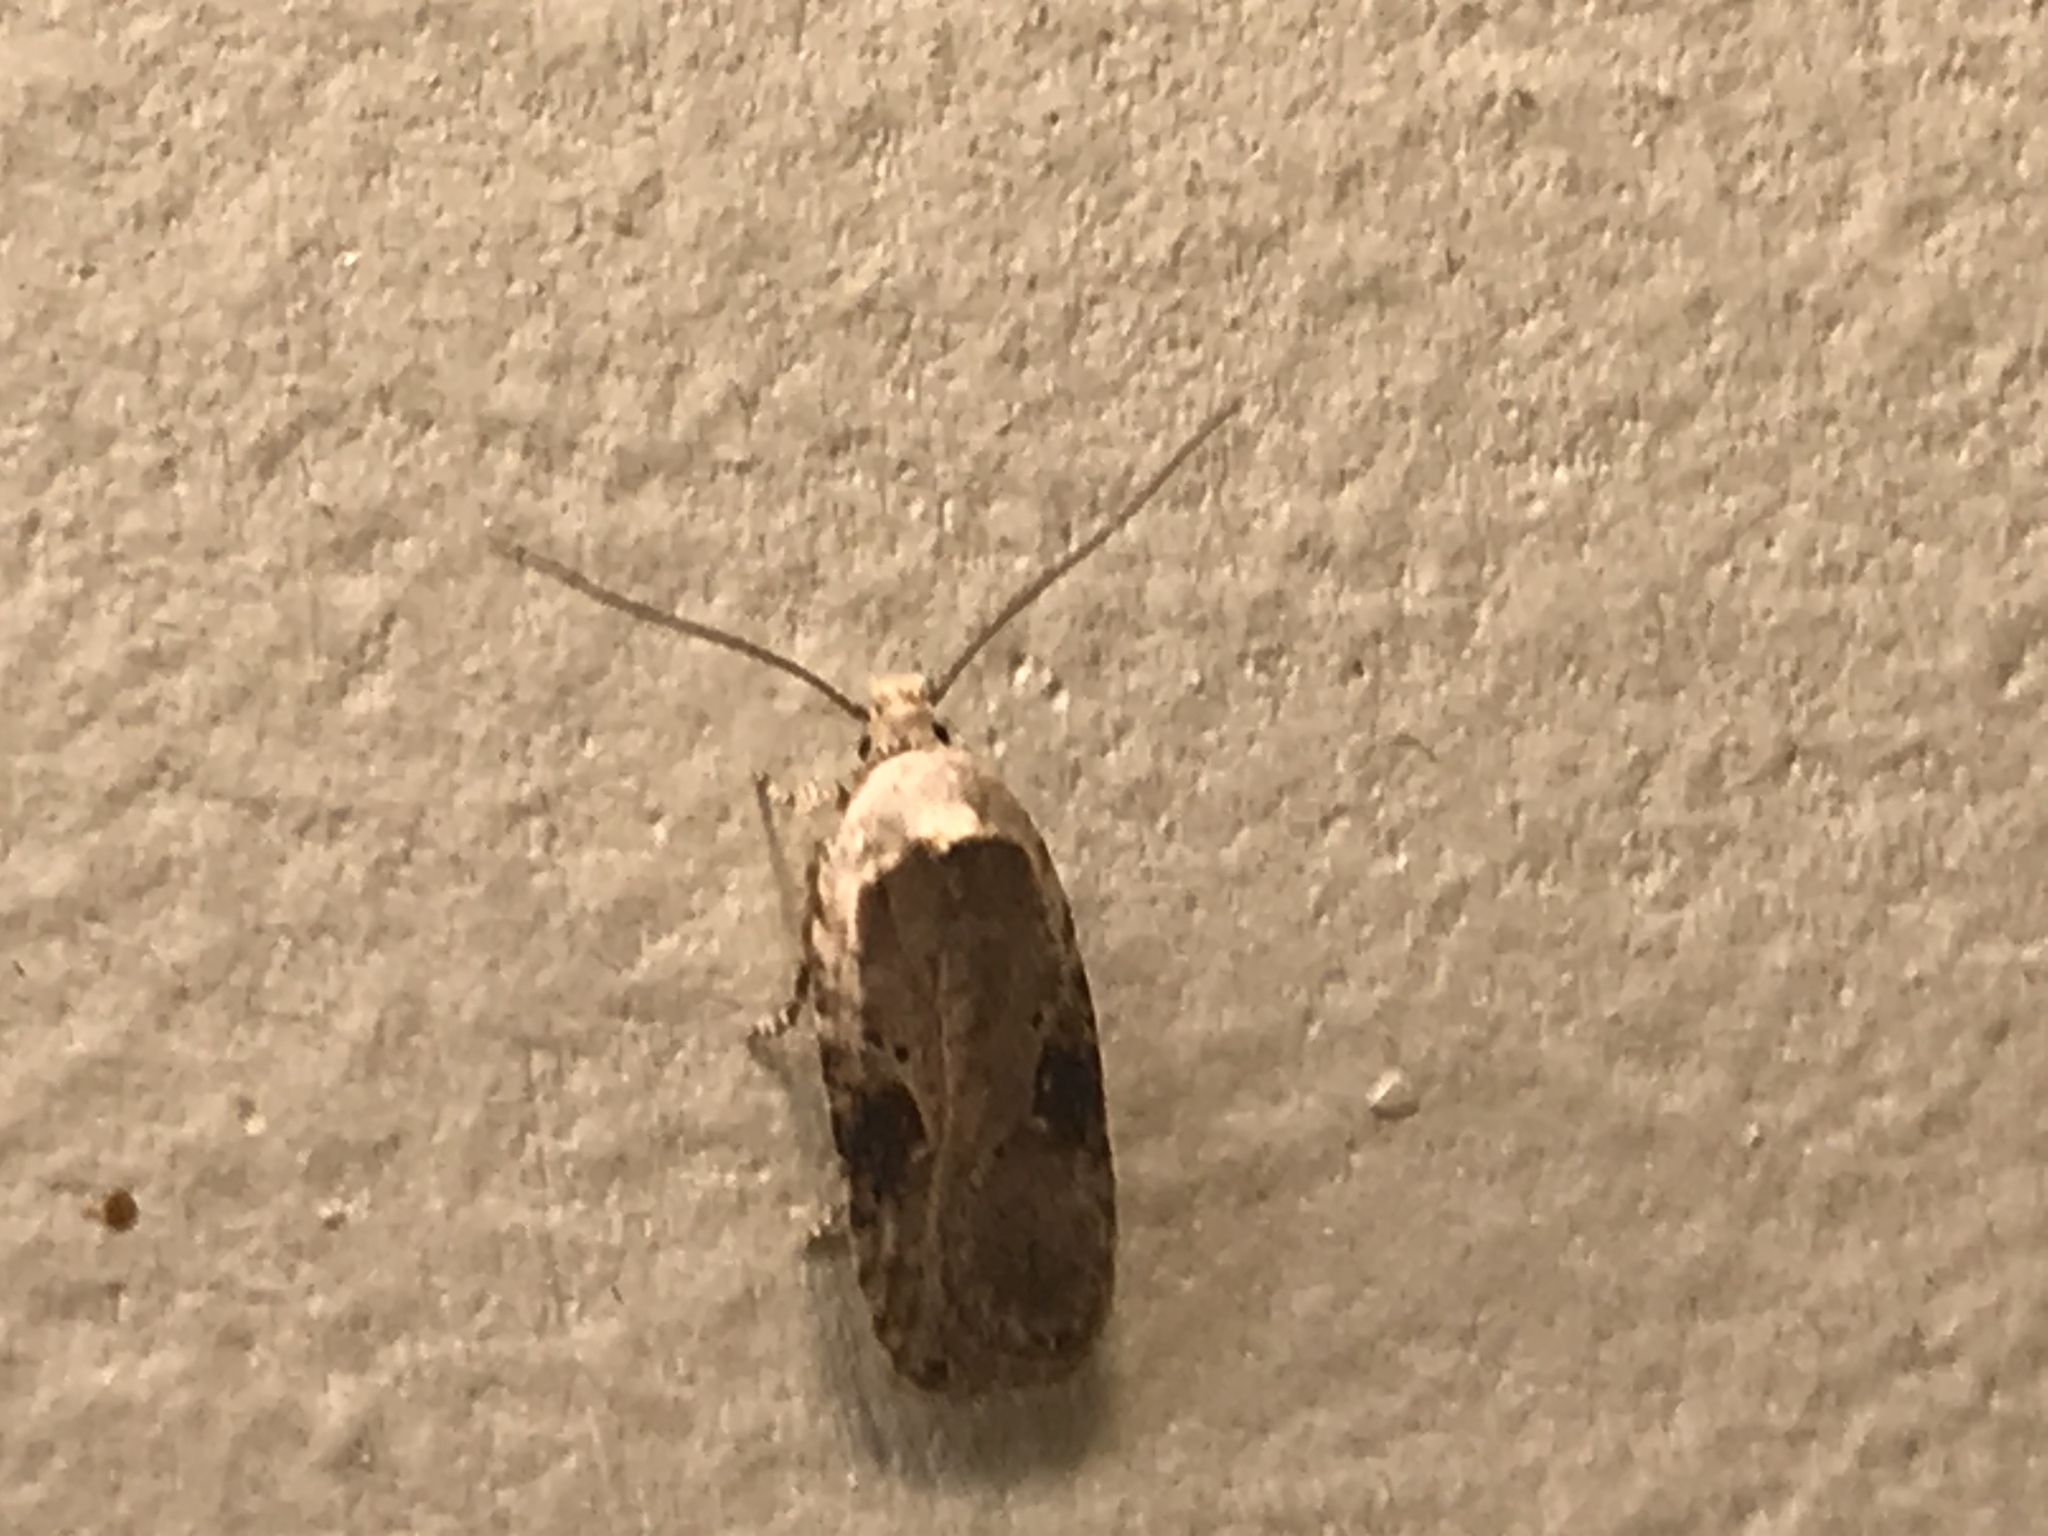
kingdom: Animalia
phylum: Arthropoda
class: Insecta
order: Lepidoptera
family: Depressariidae
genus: Agonopterix
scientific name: Agonopterix alstroemeriana
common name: Moth
